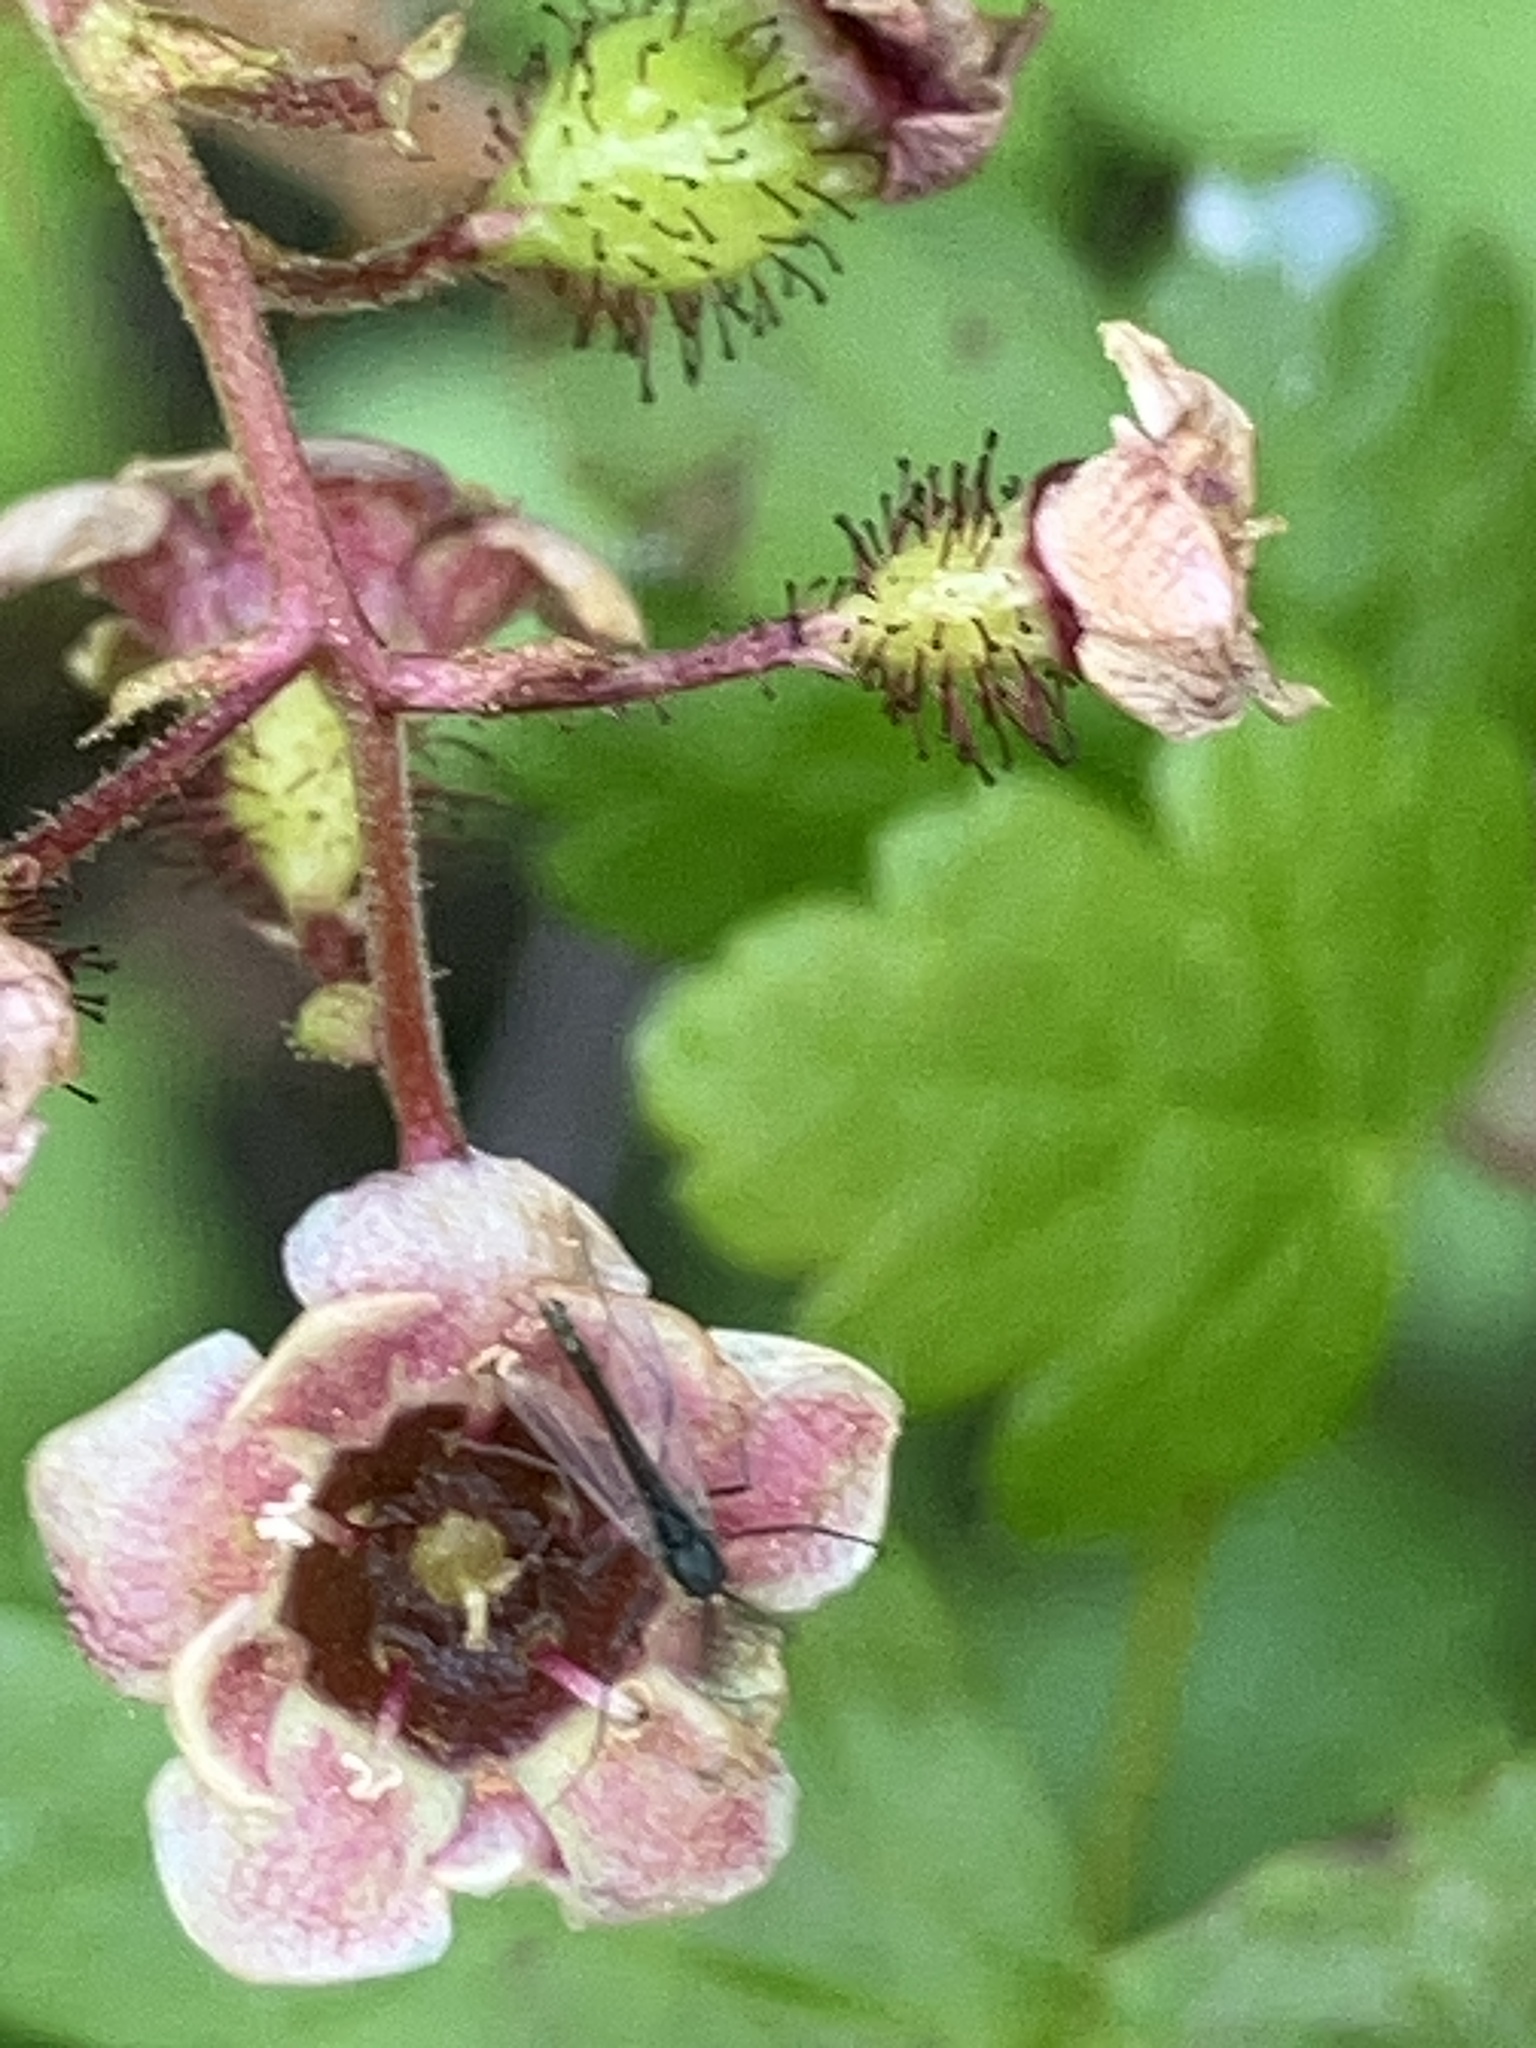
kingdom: Plantae
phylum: Tracheophyta
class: Magnoliopsida
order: Saxifragales
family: Grossulariaceae
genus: Ribes
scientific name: Ribes lacustre
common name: Black gooseberry
